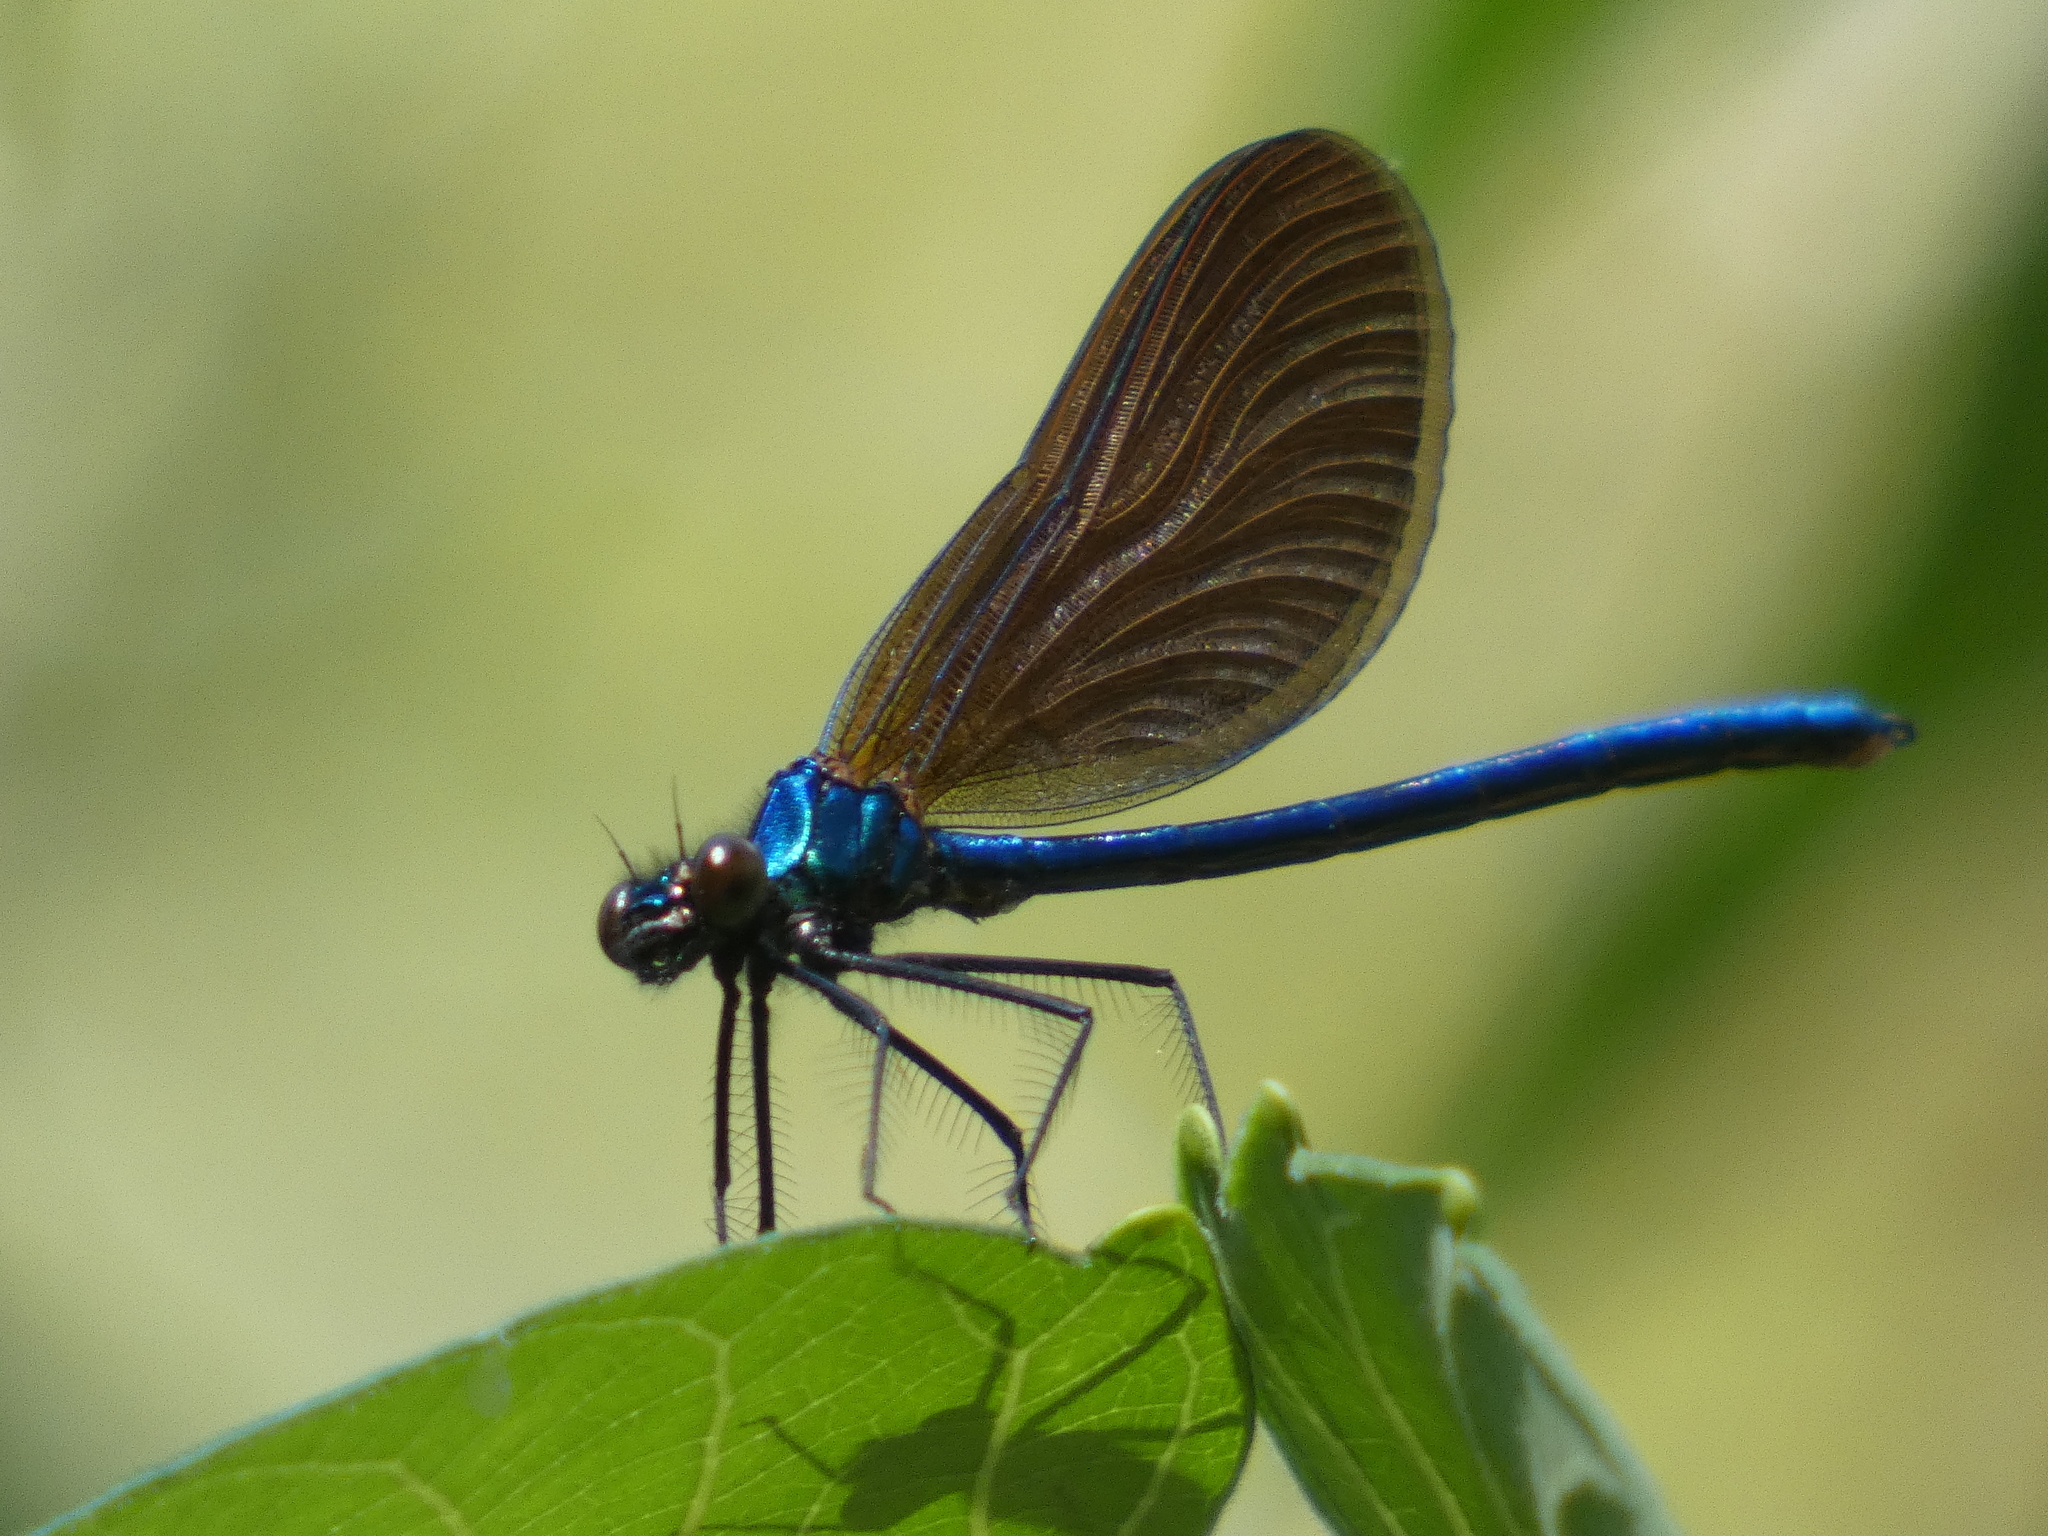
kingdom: Animalia
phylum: Arthropoda
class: Insecta
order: Odonata
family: Calopterygidae
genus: Calopteryx
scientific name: Calopteryx virgo
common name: Beautiful demoiselle
